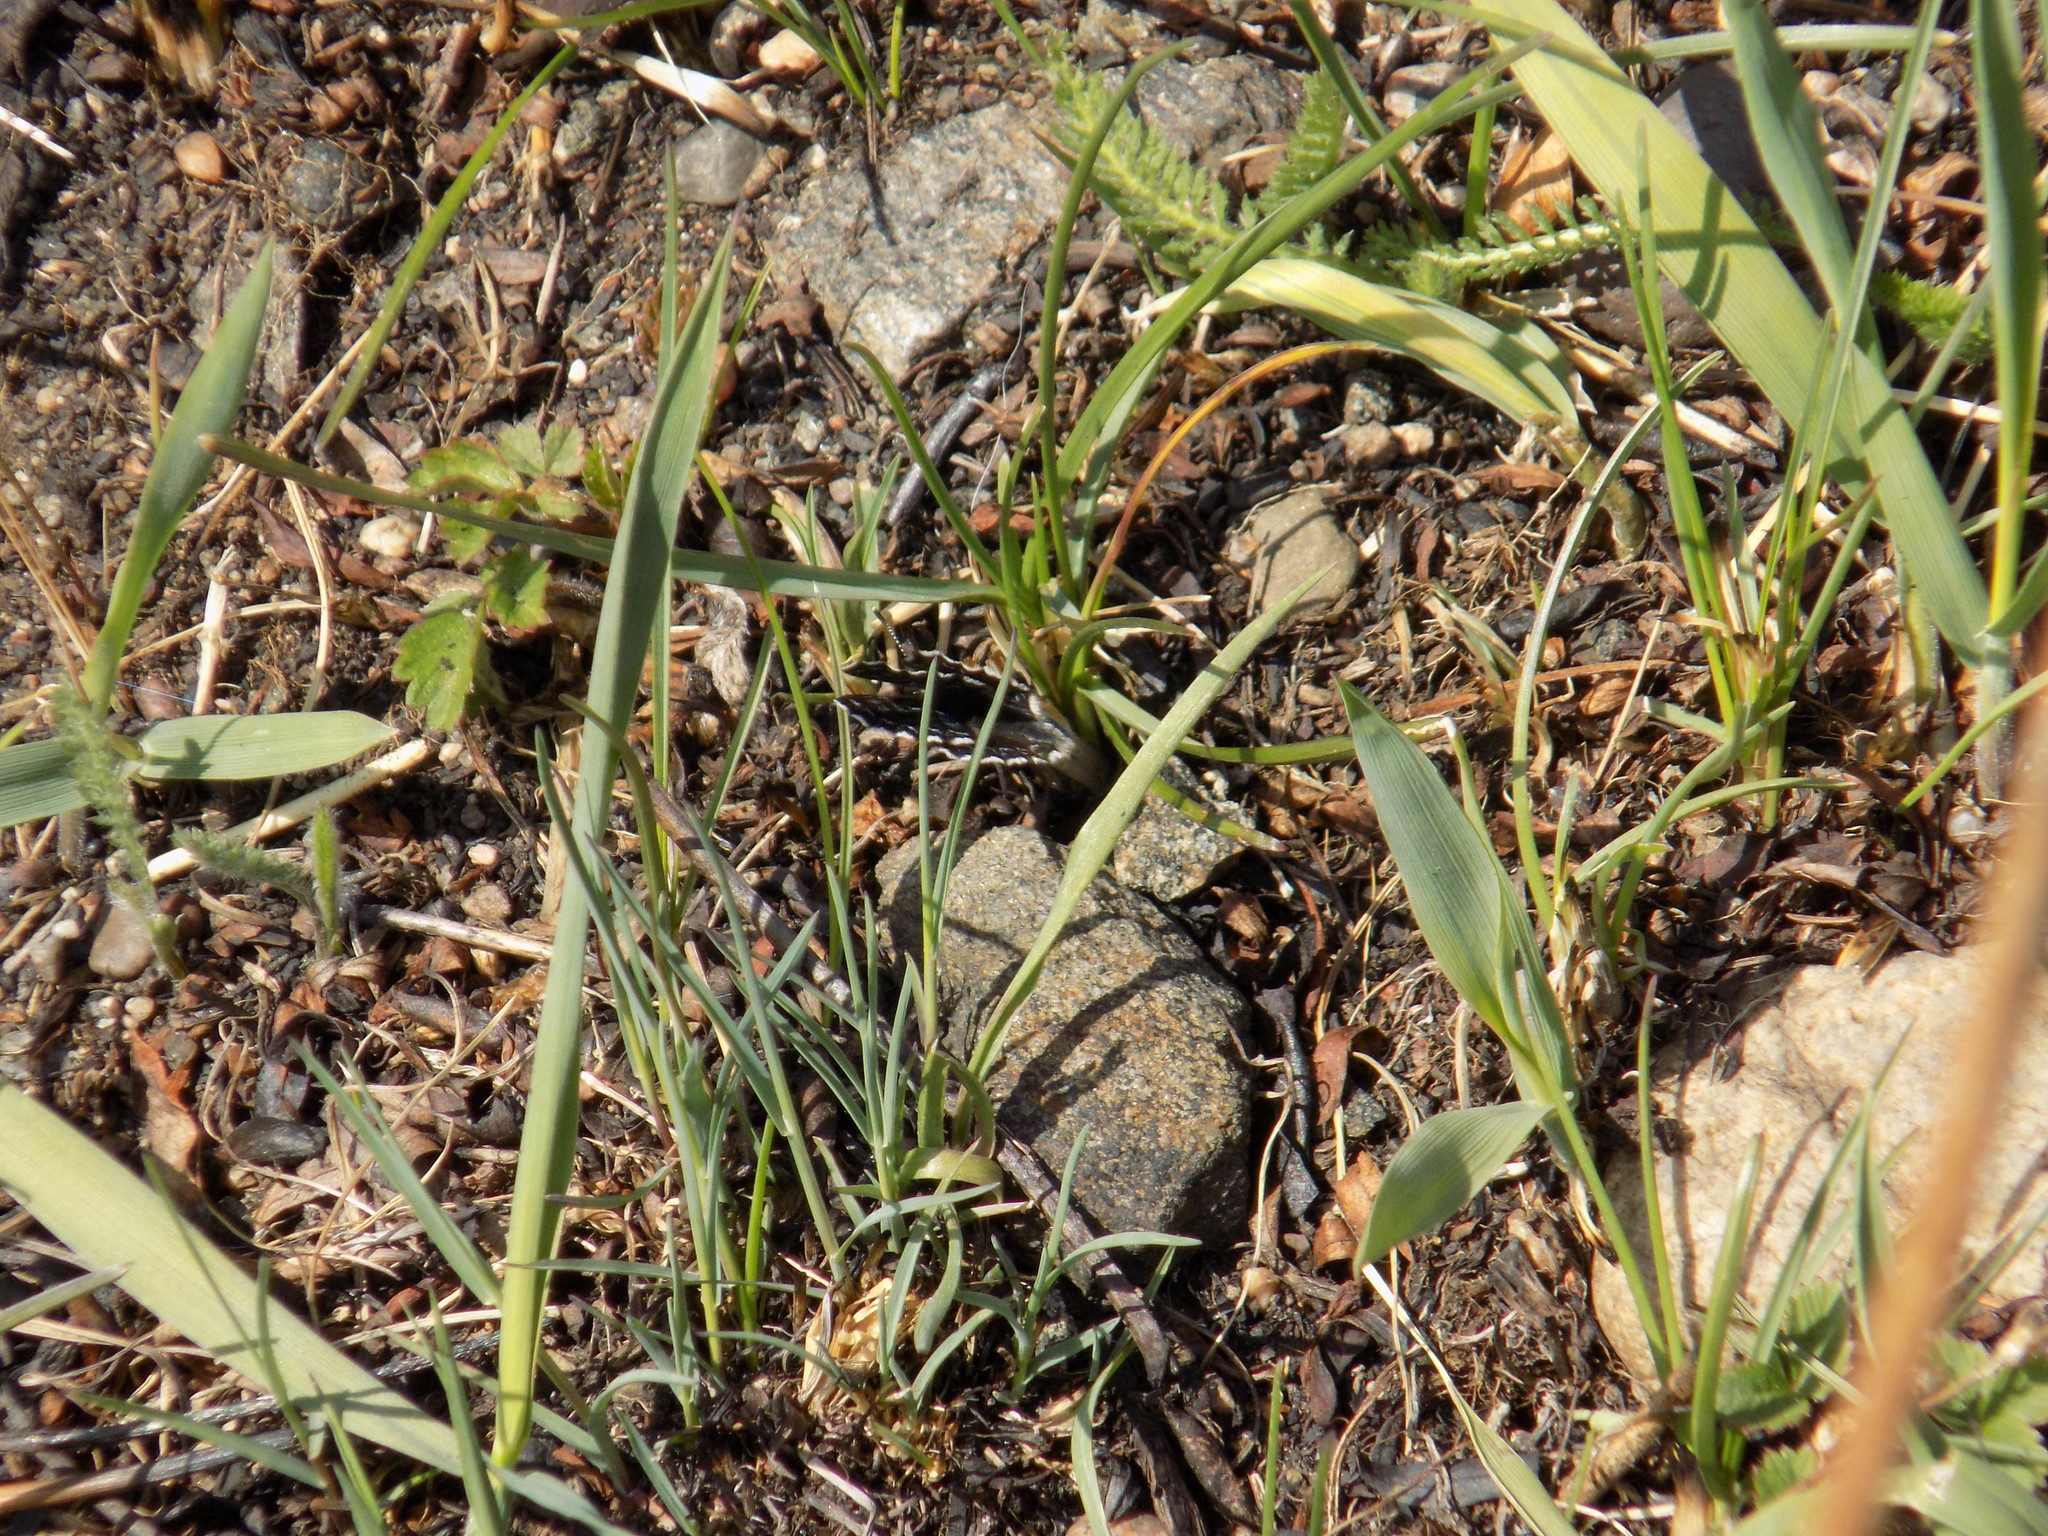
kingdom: Animalia
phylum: Arthropoda
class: Insecta
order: Lepidoptera
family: Lycaenidae
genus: Scolitantides
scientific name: Scolitantides orion
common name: Chequered blue
